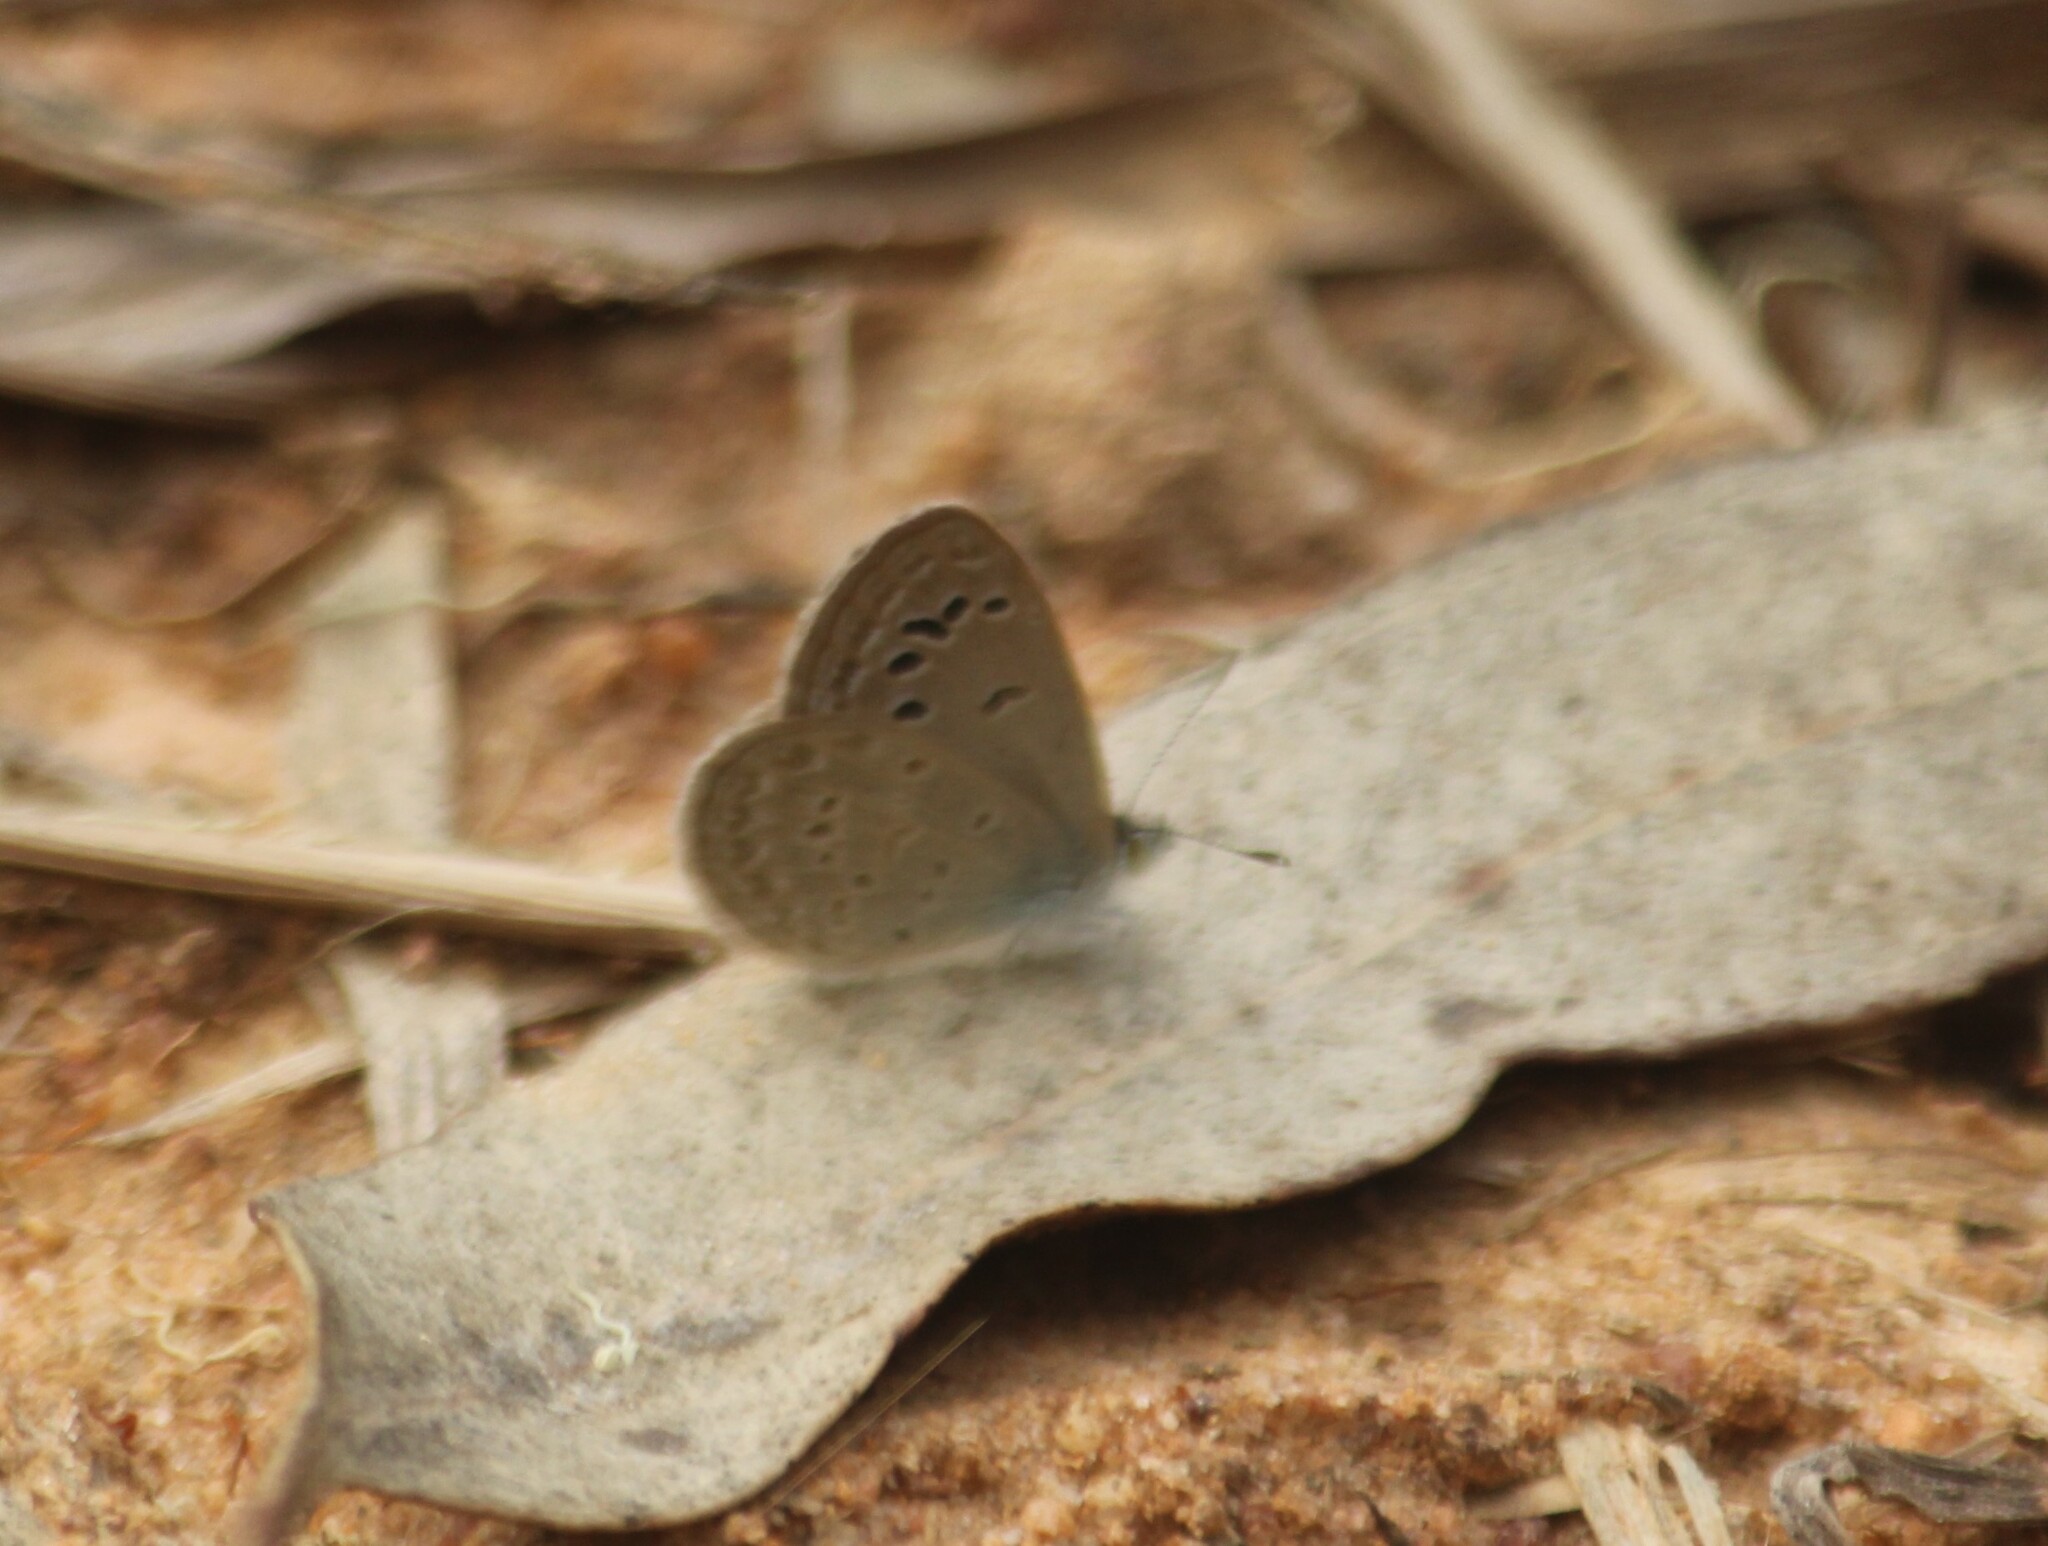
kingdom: Animalia
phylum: Arthropoda
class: Insecta
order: Lepidoptera
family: Lycaenidae
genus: Zizina
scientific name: Zizina otis
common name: Lesser grass blue
